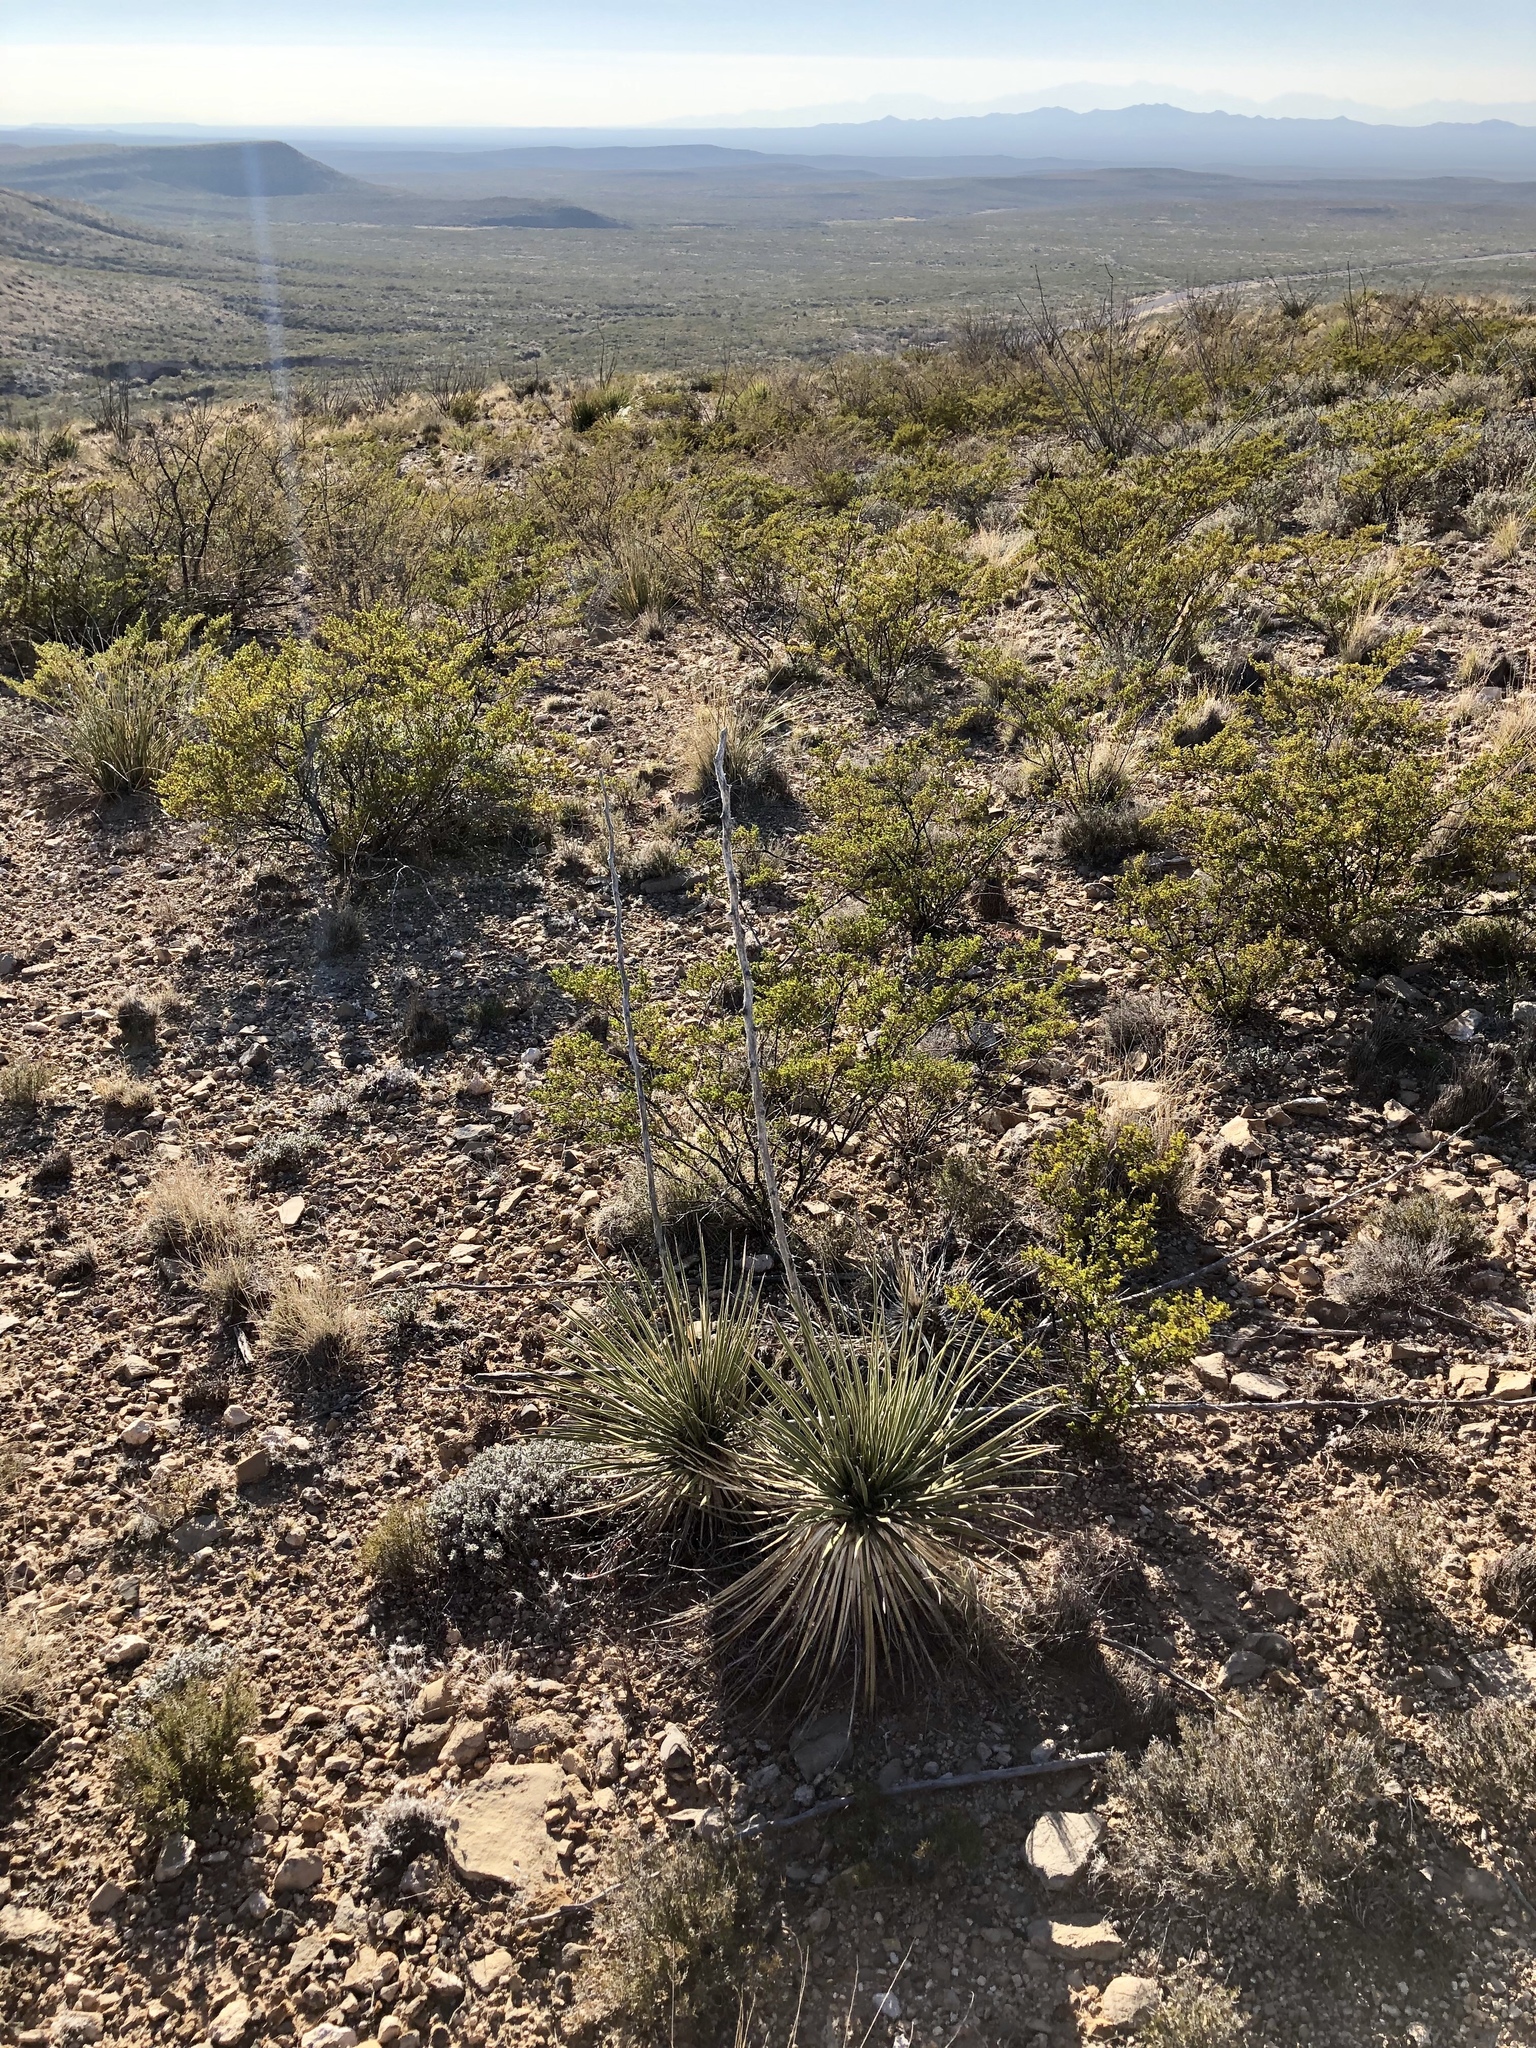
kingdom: Plantae
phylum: Tracheophyta
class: Magnoliopsida
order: Zygophyllales
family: Zygophyllaceae
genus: Larrea
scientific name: Larrea tridentata
